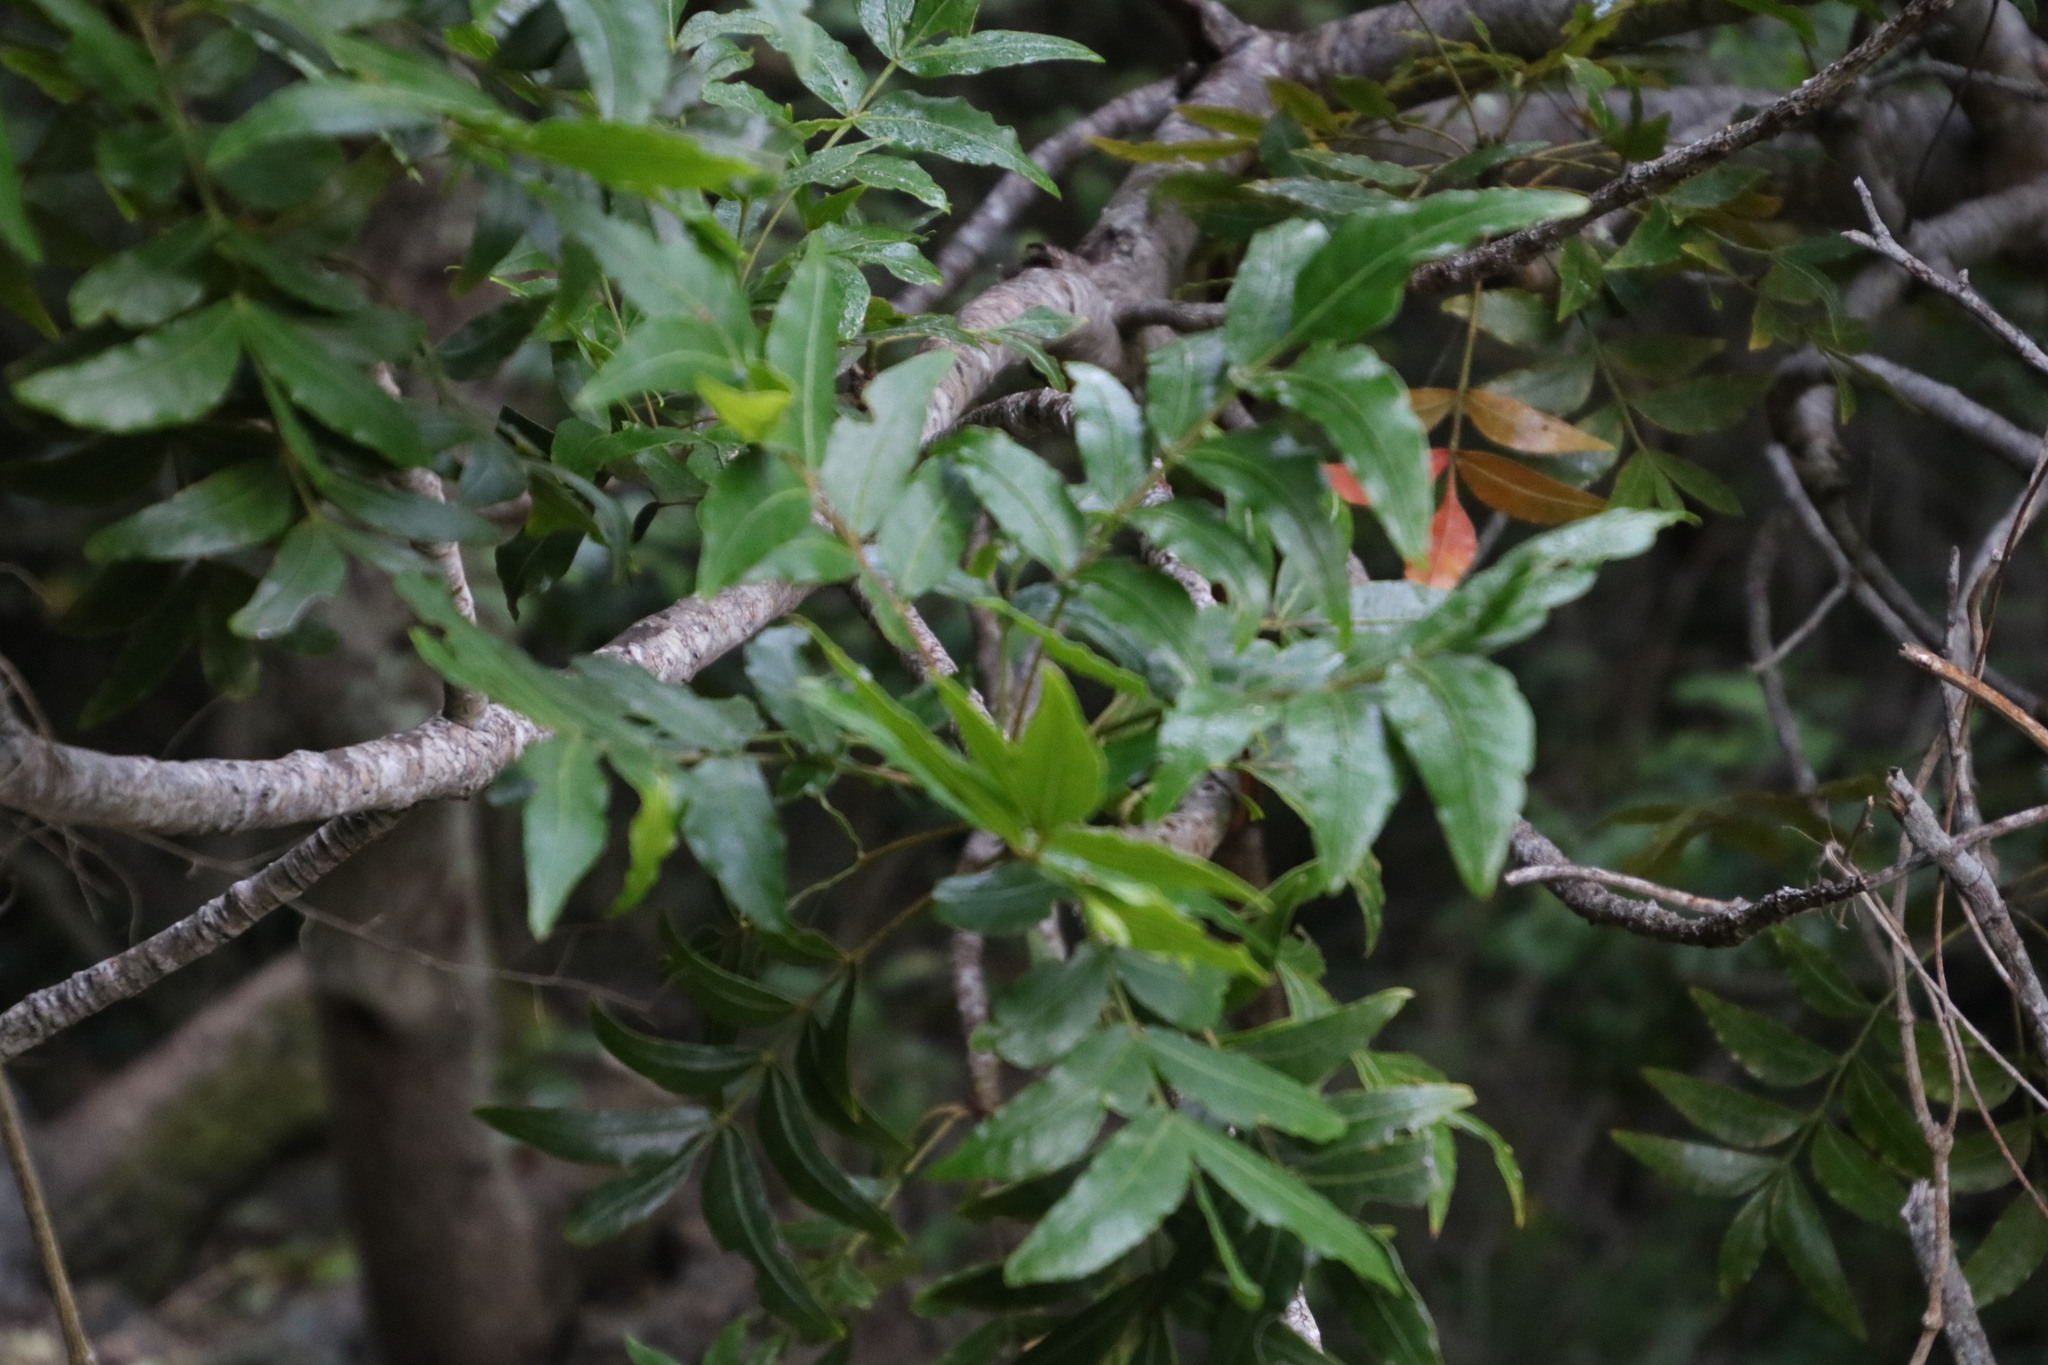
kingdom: Plantae
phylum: Tracheophyta
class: Magnoliopsida
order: Sapindales
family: Anacardiaceae
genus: Harpephyllum
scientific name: Harpephyllum caffrum
